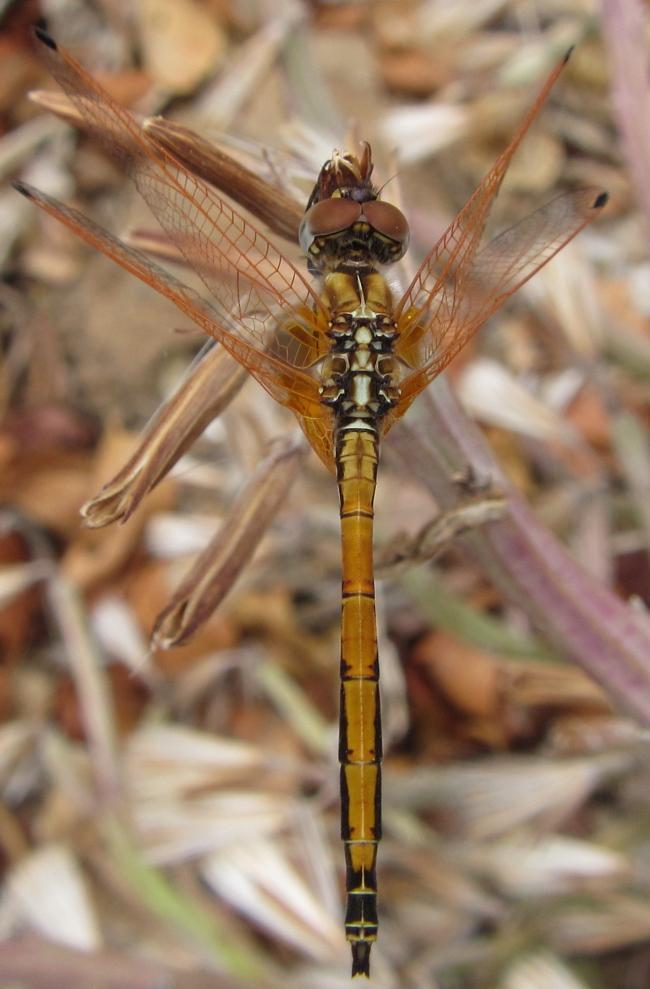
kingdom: Animalia
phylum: Arthropoda
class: Insecta
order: Odonata
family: Libellulidae
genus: Trithemis
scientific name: Trithemis arteriosa
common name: Red-veined dropwing
